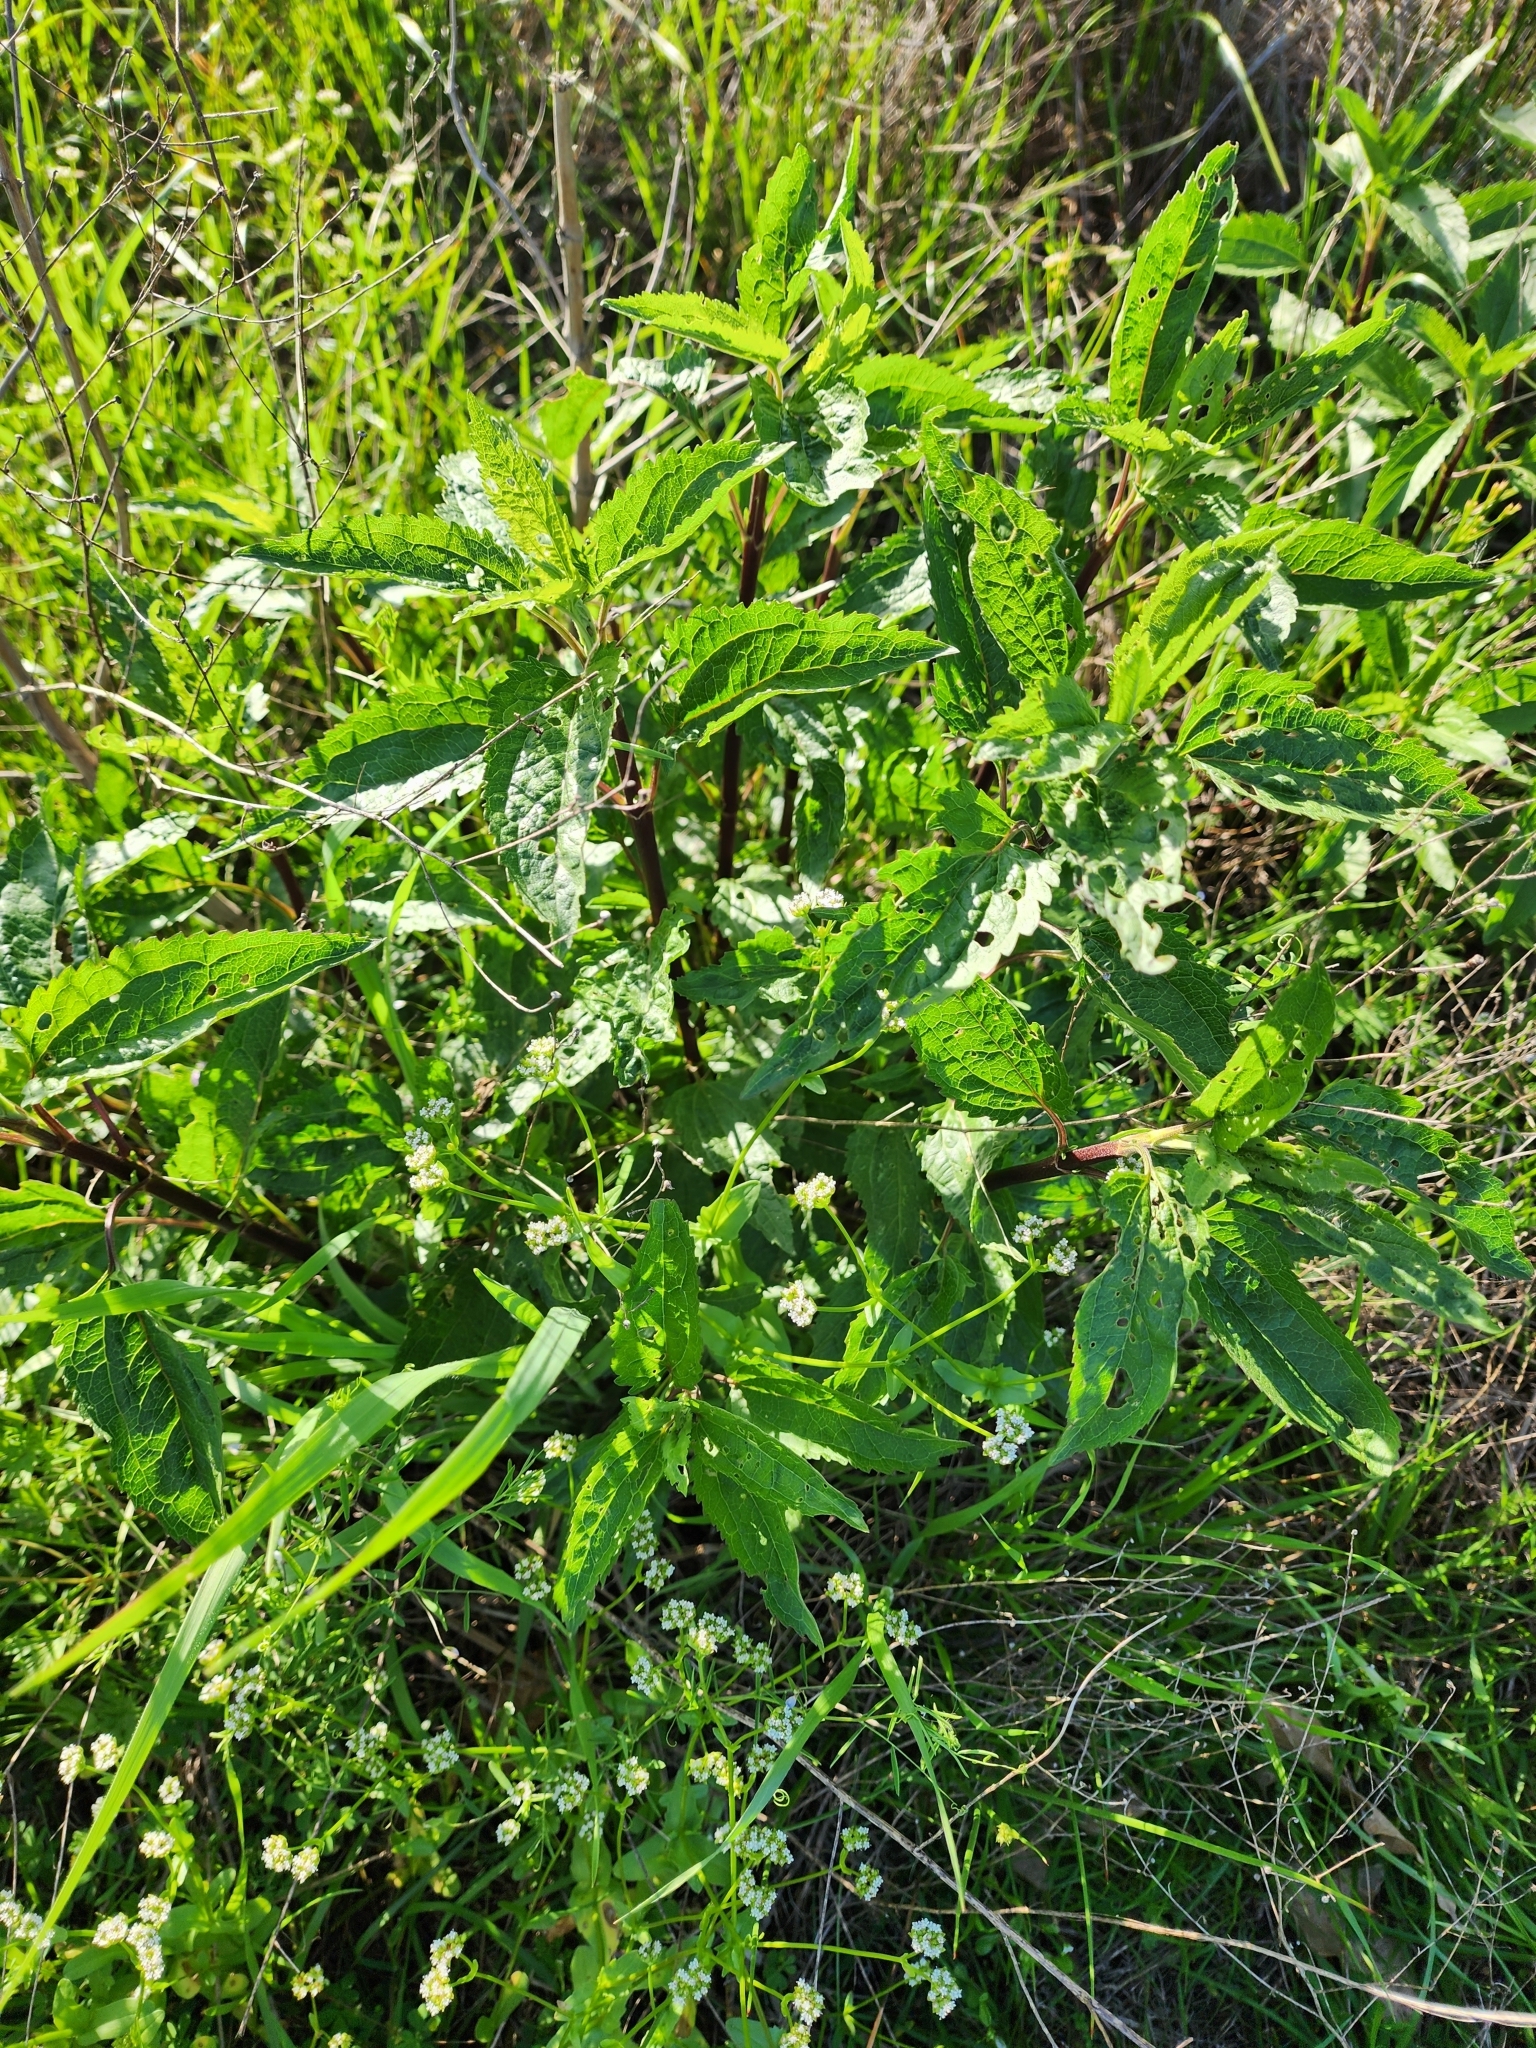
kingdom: Plantae
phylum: Tracheophyta
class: Magnoliopsida
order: Asterales
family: Asteraceae
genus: Eupatorium
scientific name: Eupatorium serotinum
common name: Late boneset
